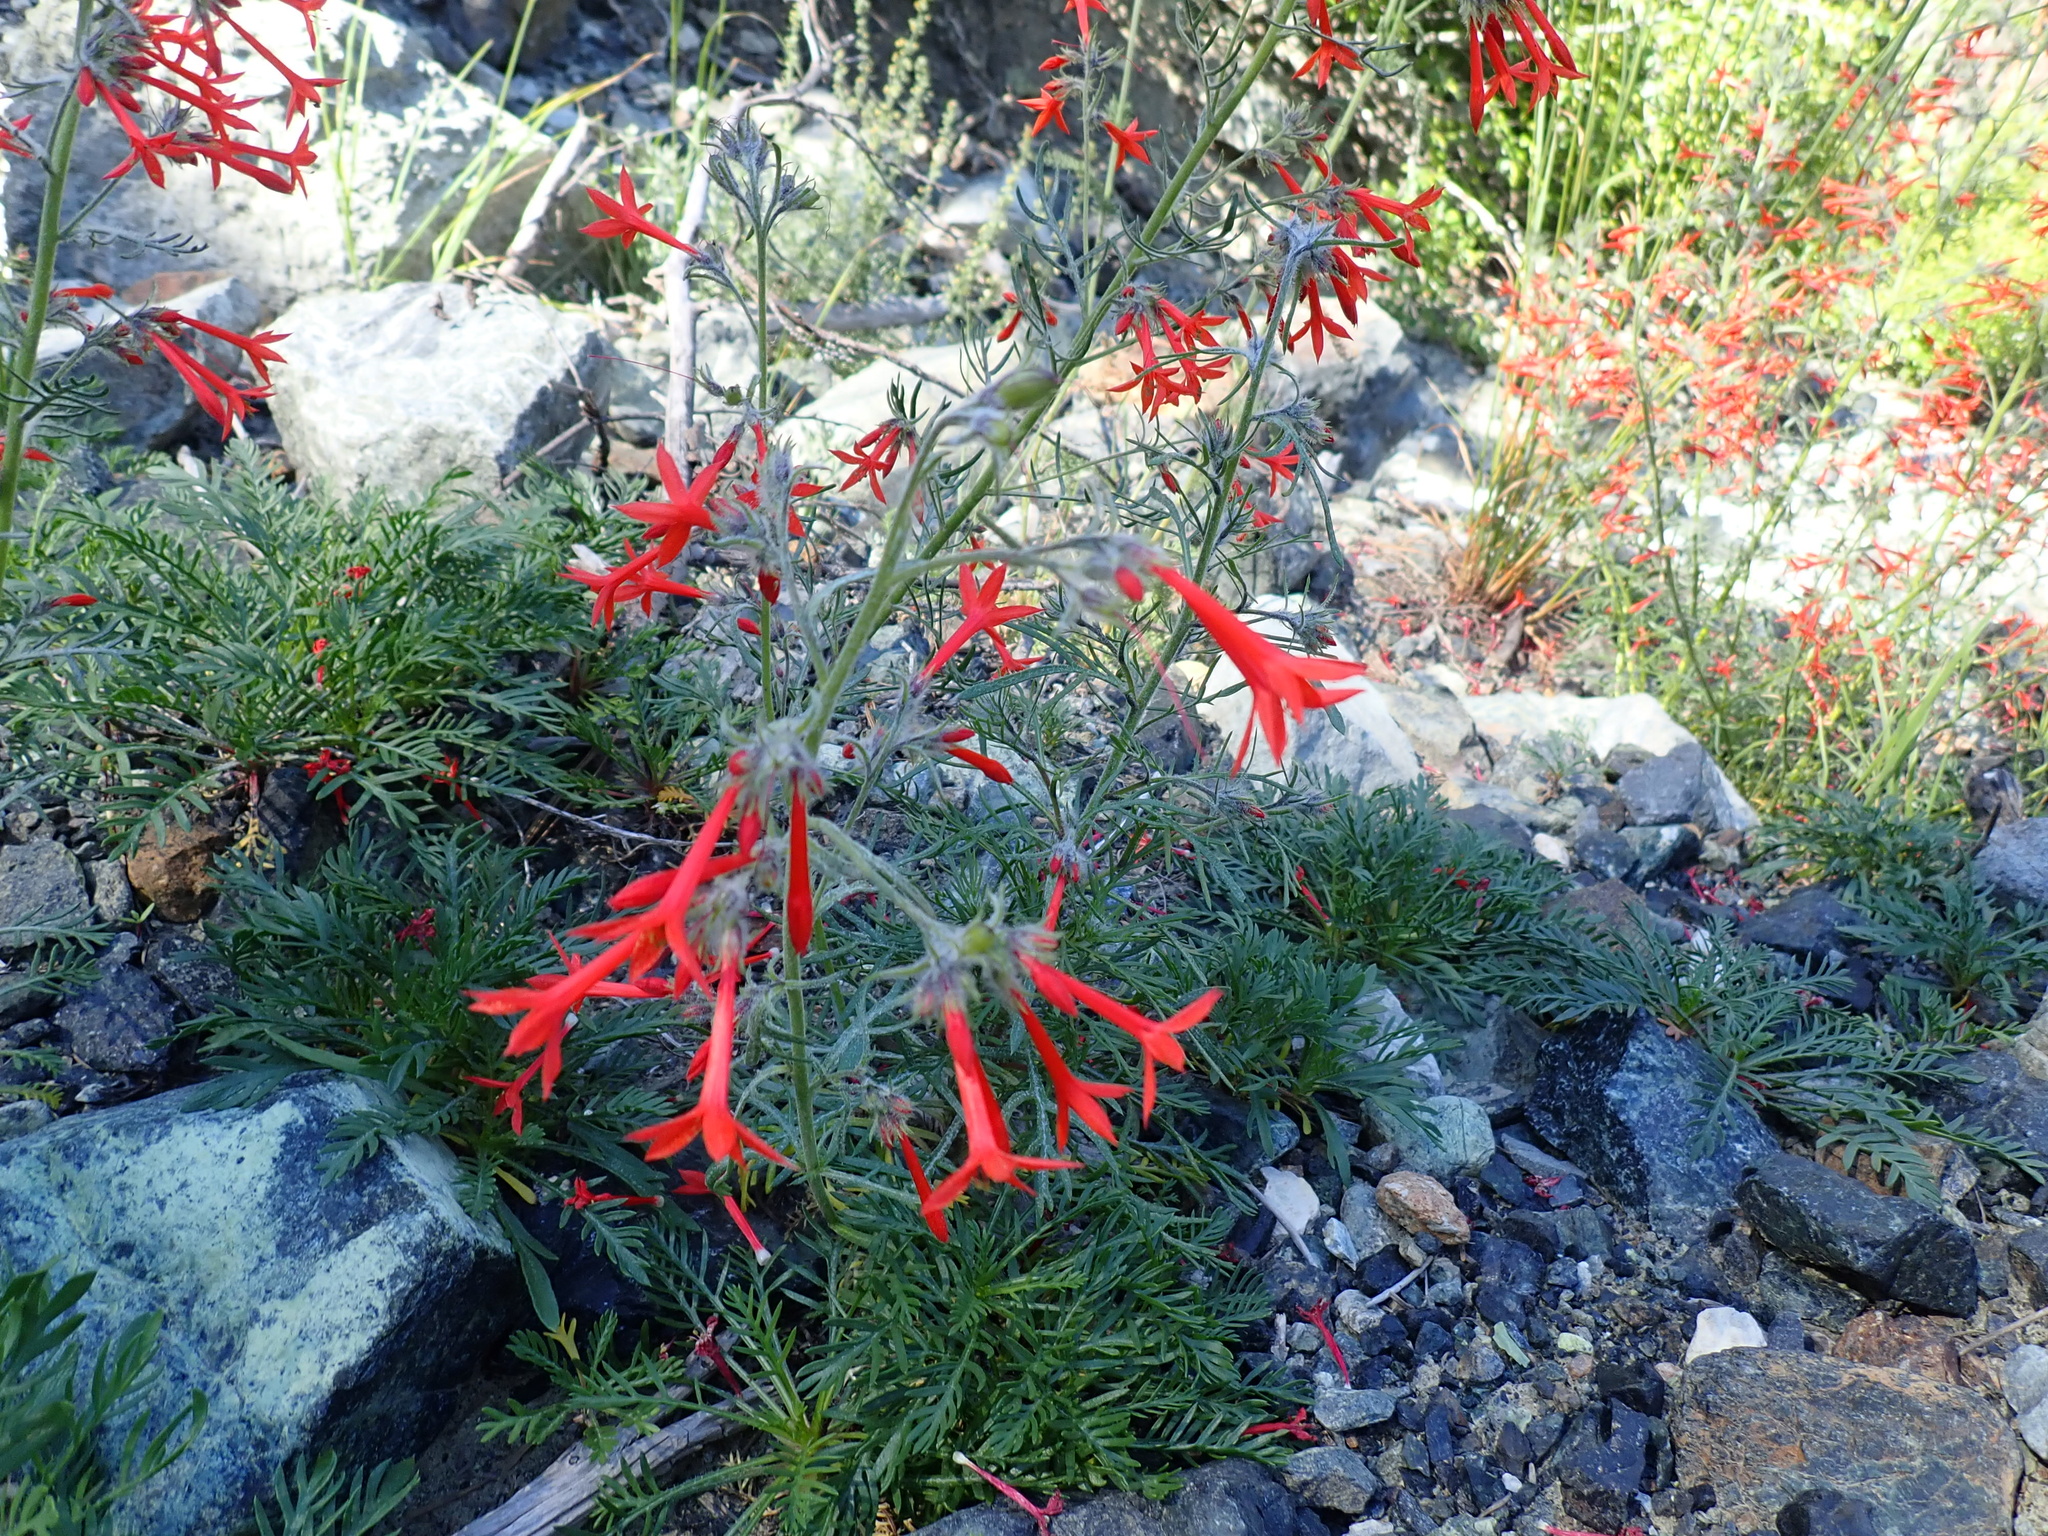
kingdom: Plantae
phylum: Tracheophyta
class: Magnoliopsida
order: Ericales
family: Polemoniaceae
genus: Ipomopsis
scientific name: Ipomopsis aggregata
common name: Scarlet gilia
